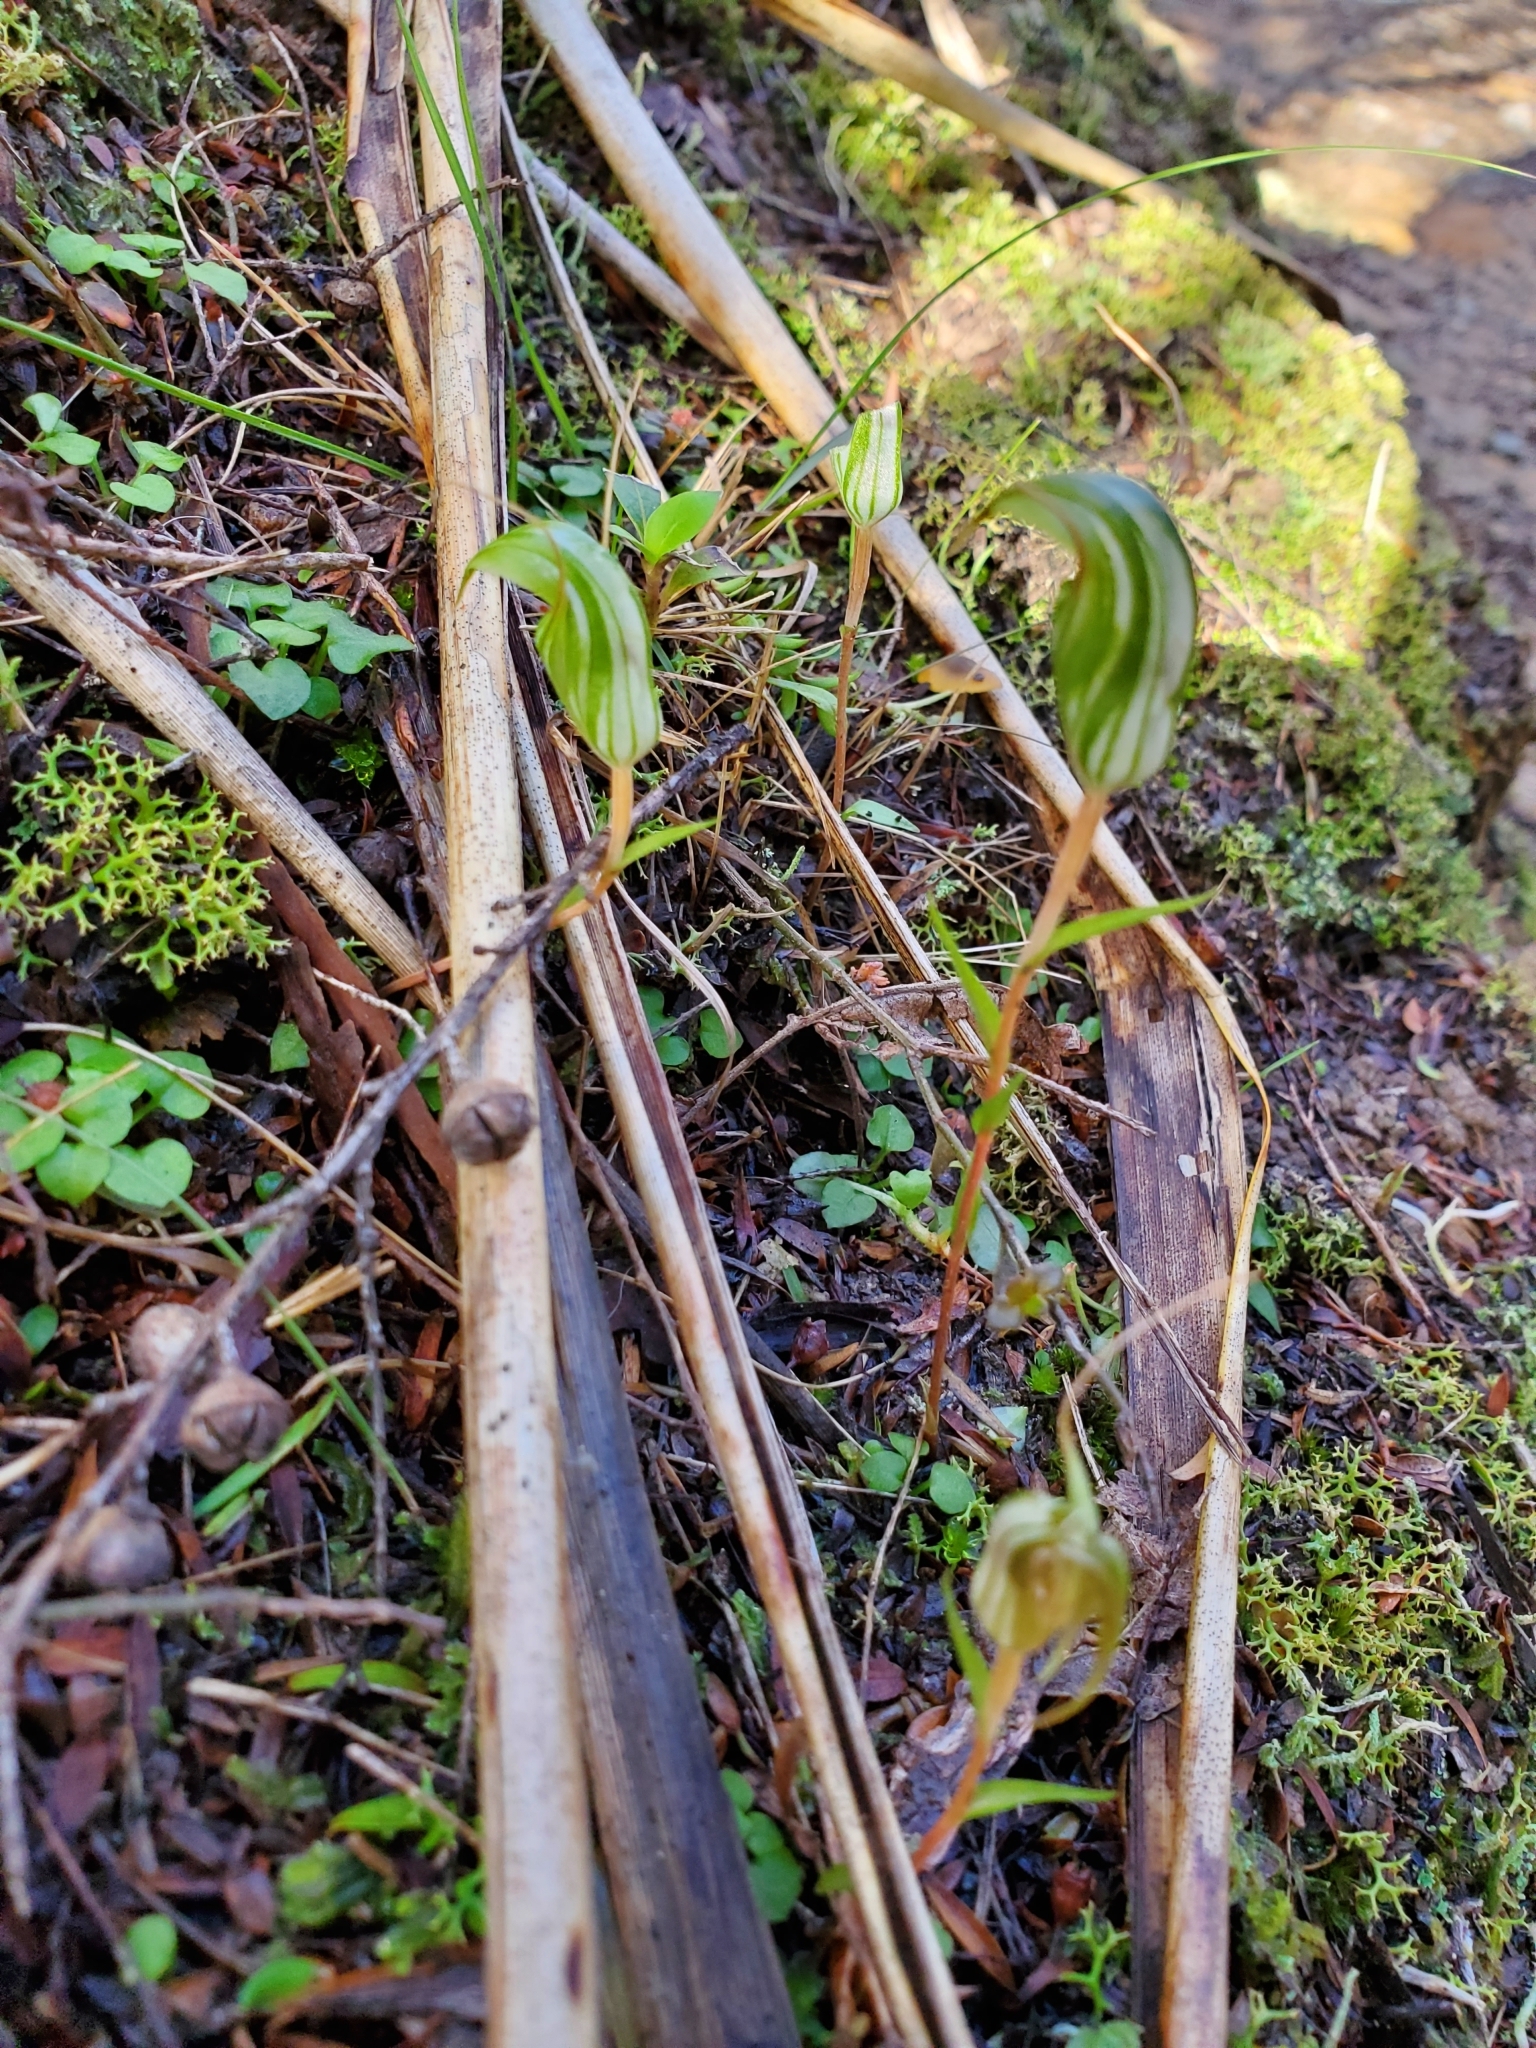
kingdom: Plantae
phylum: Tracheophyta
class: Liliopsida
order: Asparagales
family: Orchidaceae
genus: Pterostylis
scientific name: Pterostylis alobula
